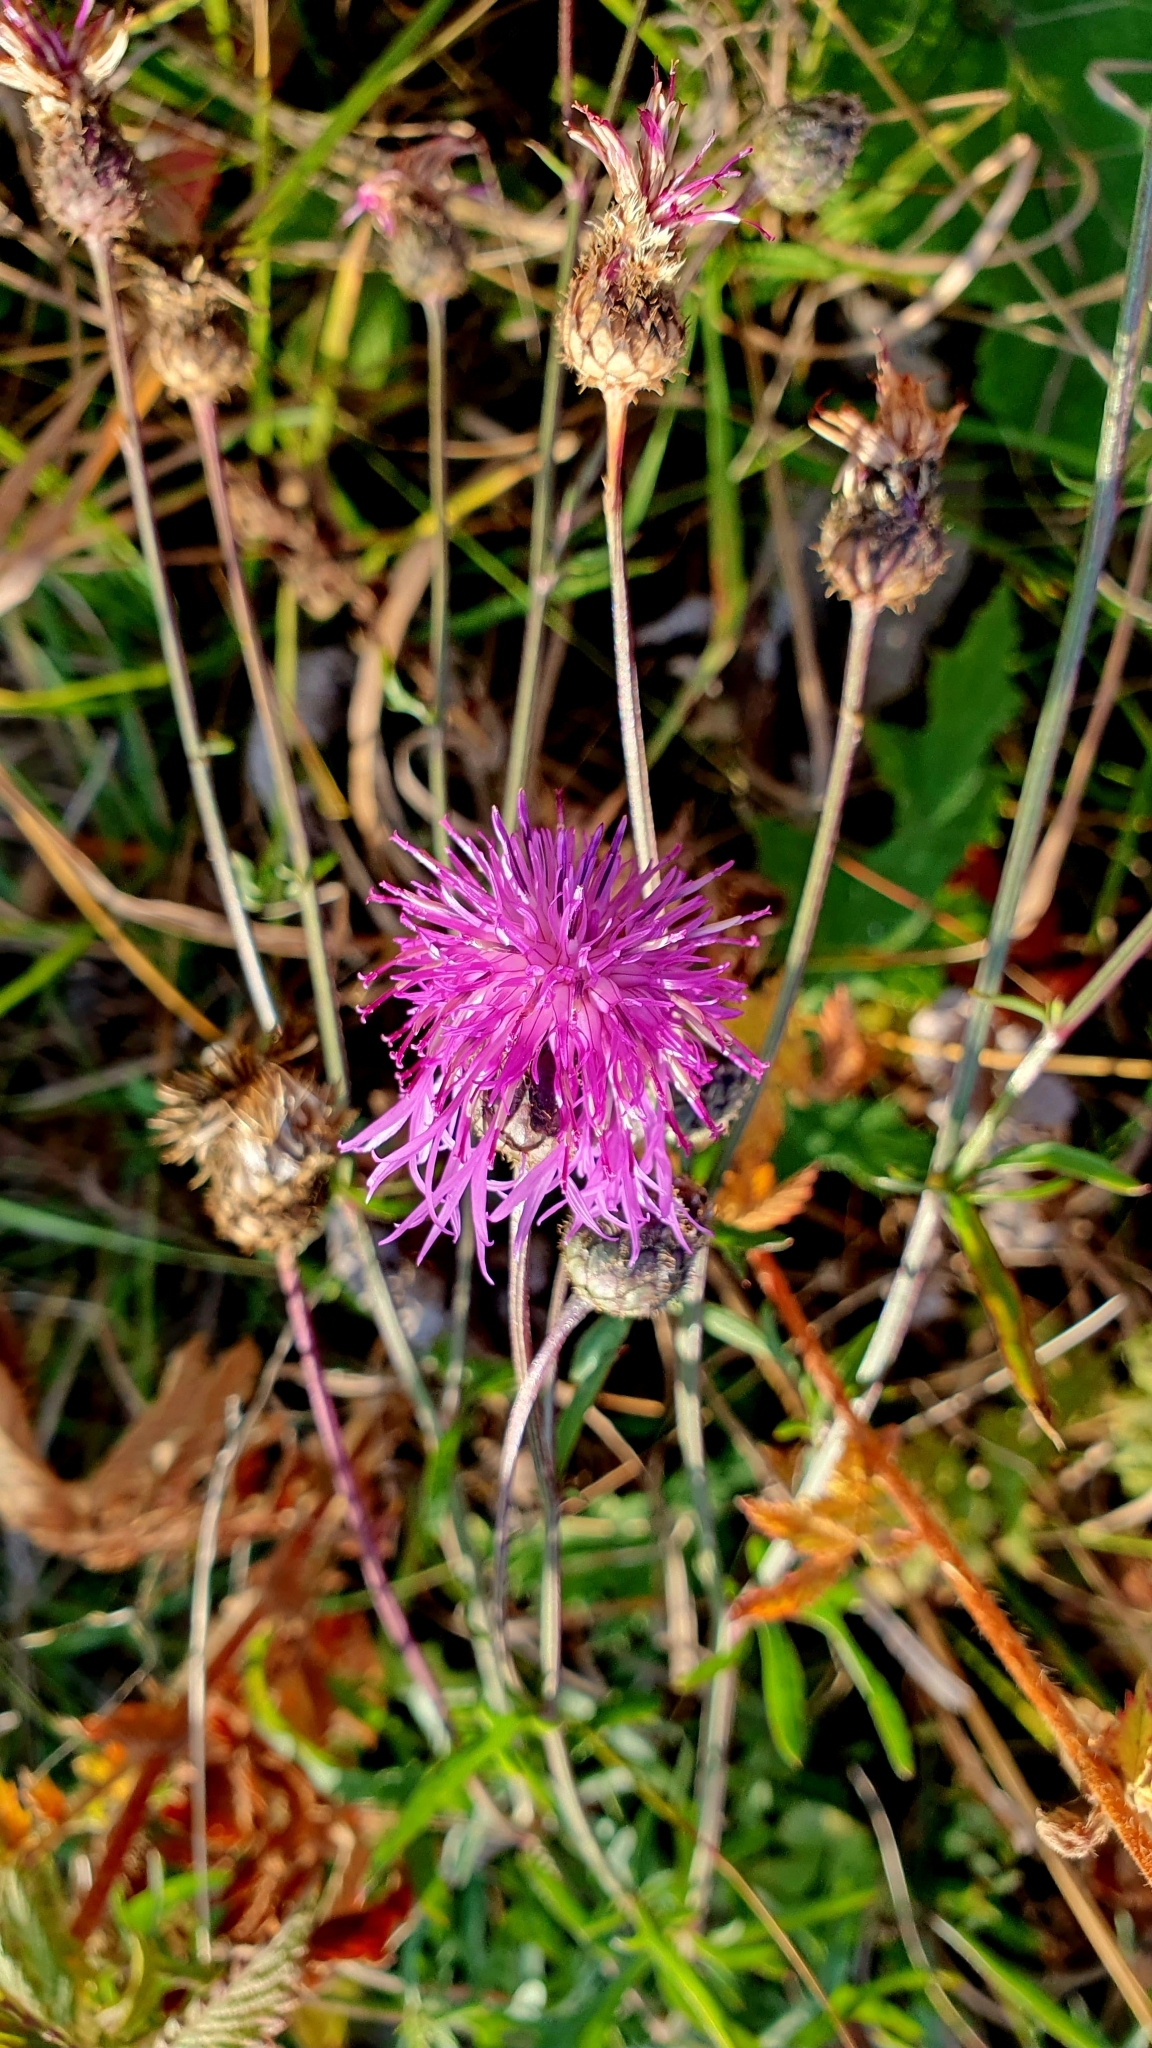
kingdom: Plantae
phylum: Tracheophyta
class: Magnoliopsida
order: Asterales
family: Asteraceae
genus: Centaurea
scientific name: Centaurea scabiosa
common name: Greater knapweed
